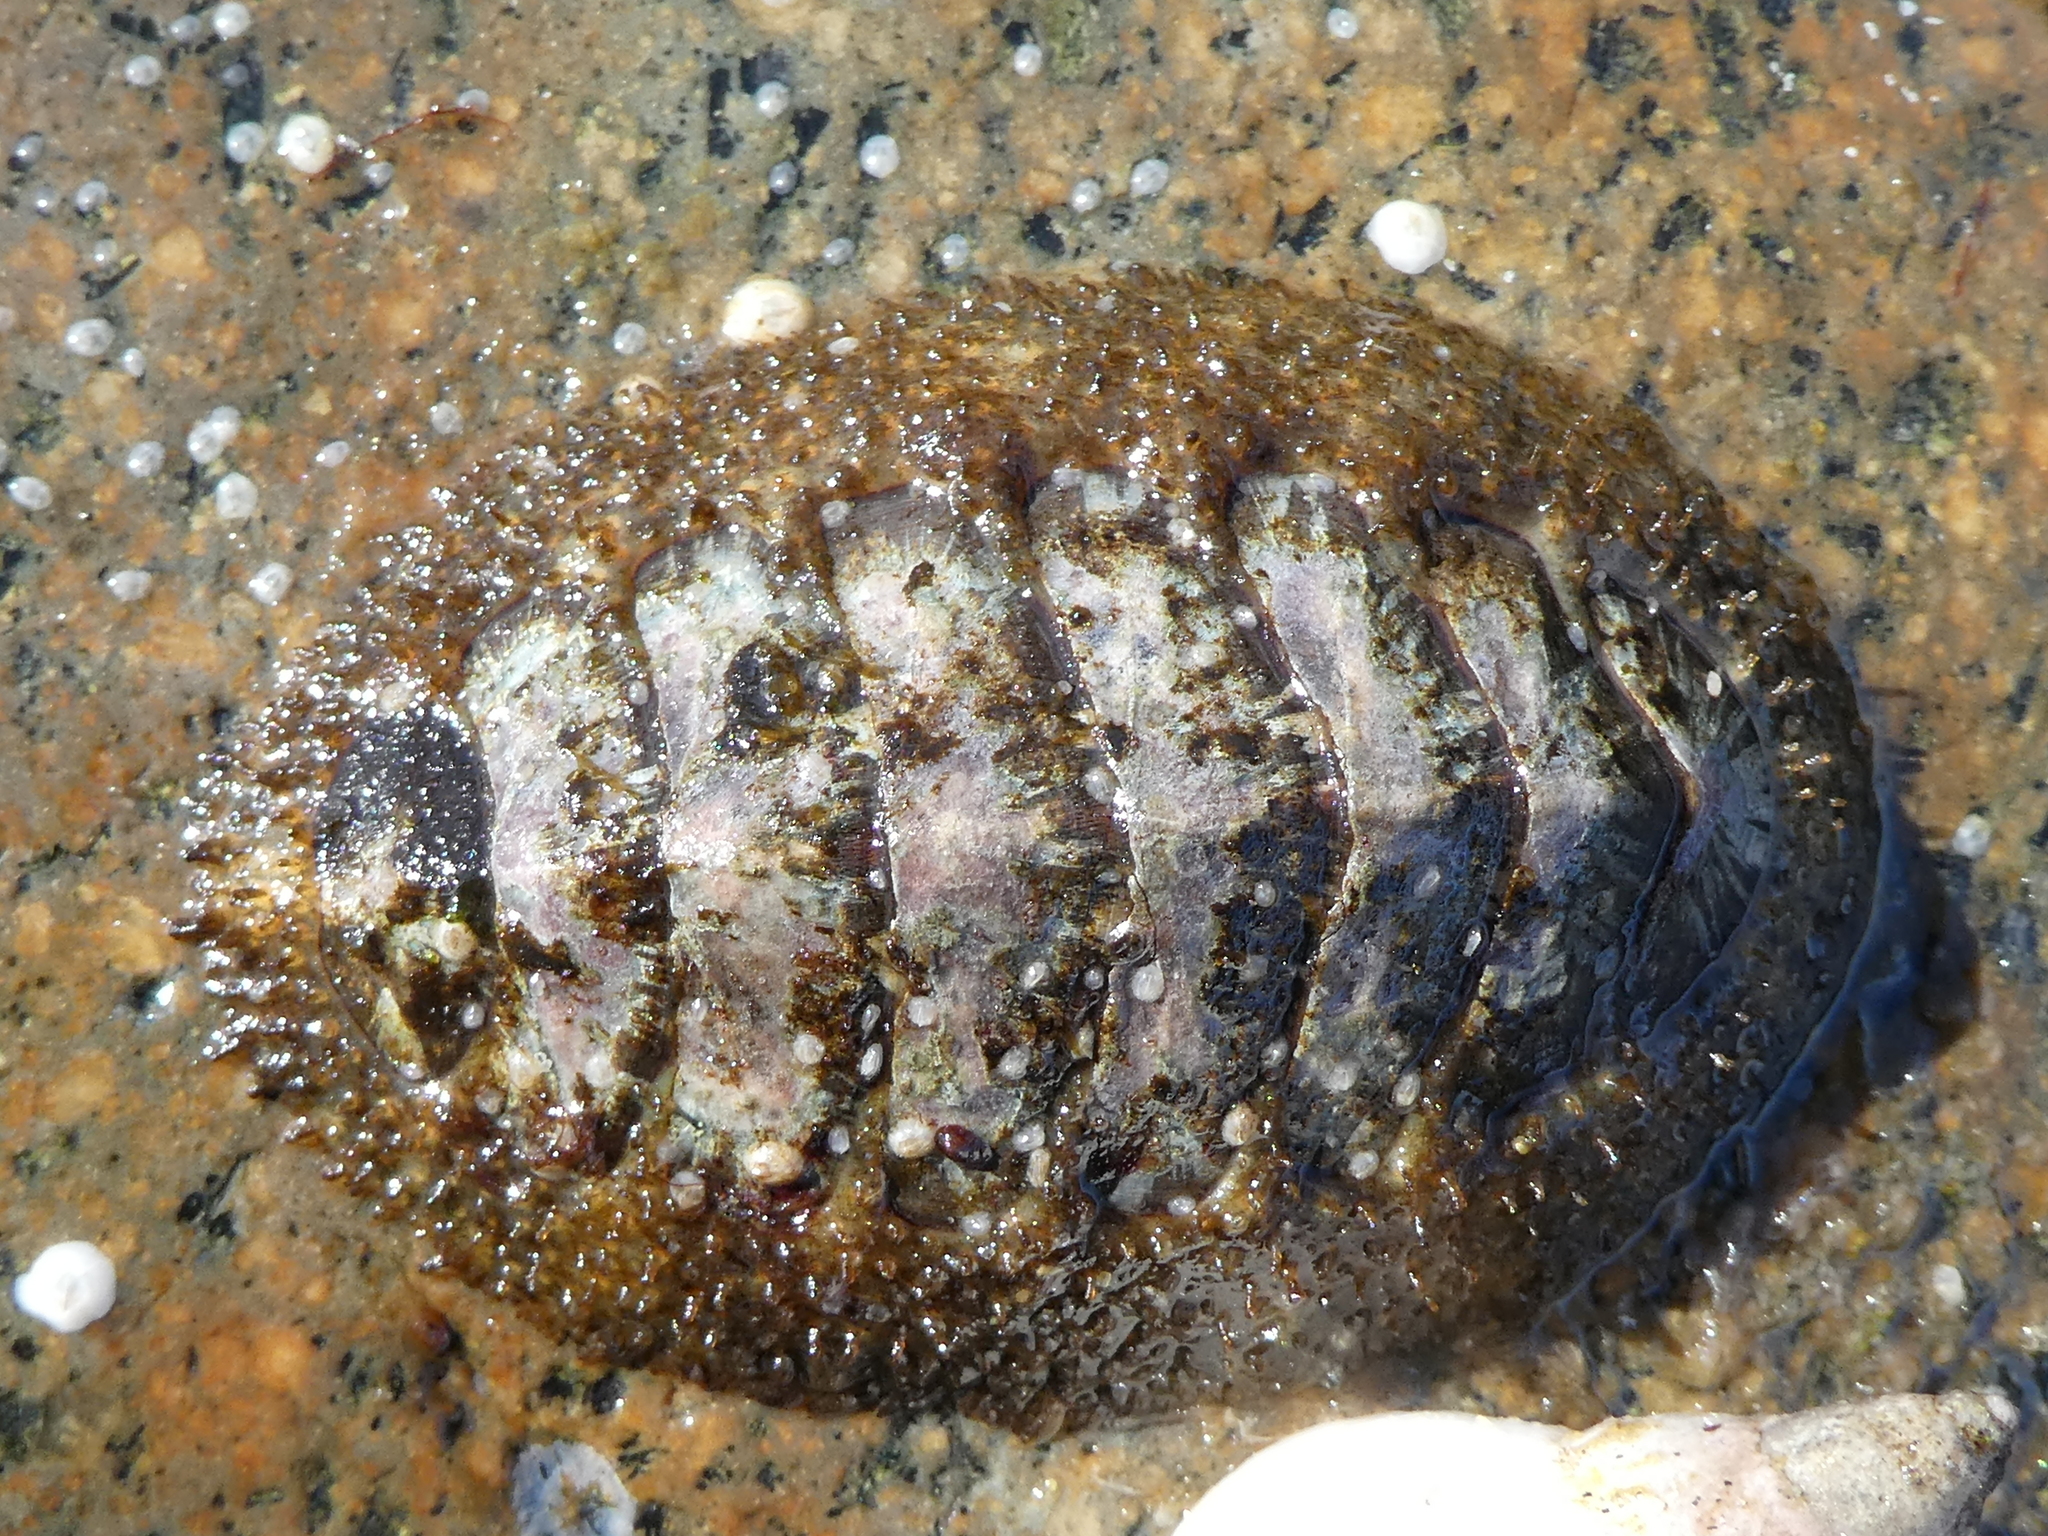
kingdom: Animalia
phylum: Mollusca
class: Polyplacophora
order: Chitonida
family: Mopaliidae
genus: Mopalia
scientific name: Mopalia lignosa
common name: Woody chiton
